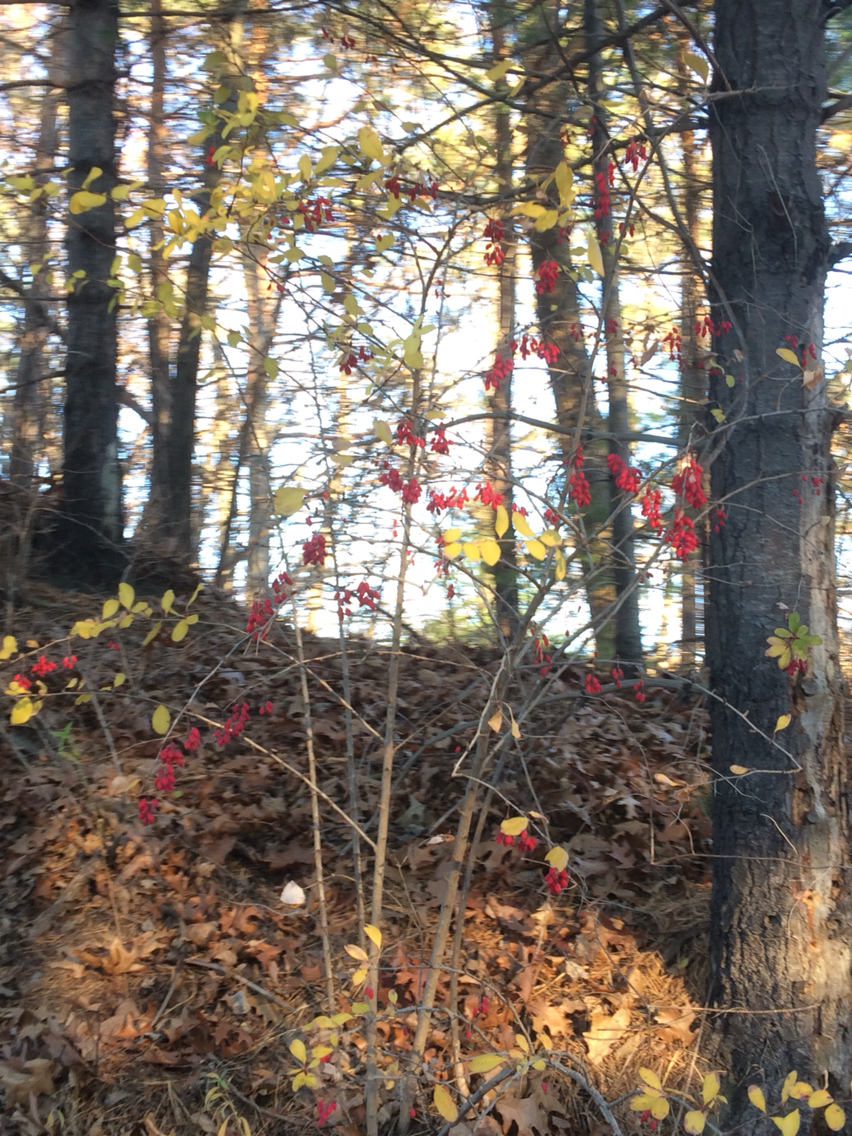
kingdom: Plantae
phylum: Tracheophyta
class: Magnoliopsida
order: Ranunculales
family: Berberidaceae
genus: Berberis
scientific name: Berberis vulgaris
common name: Barberry
